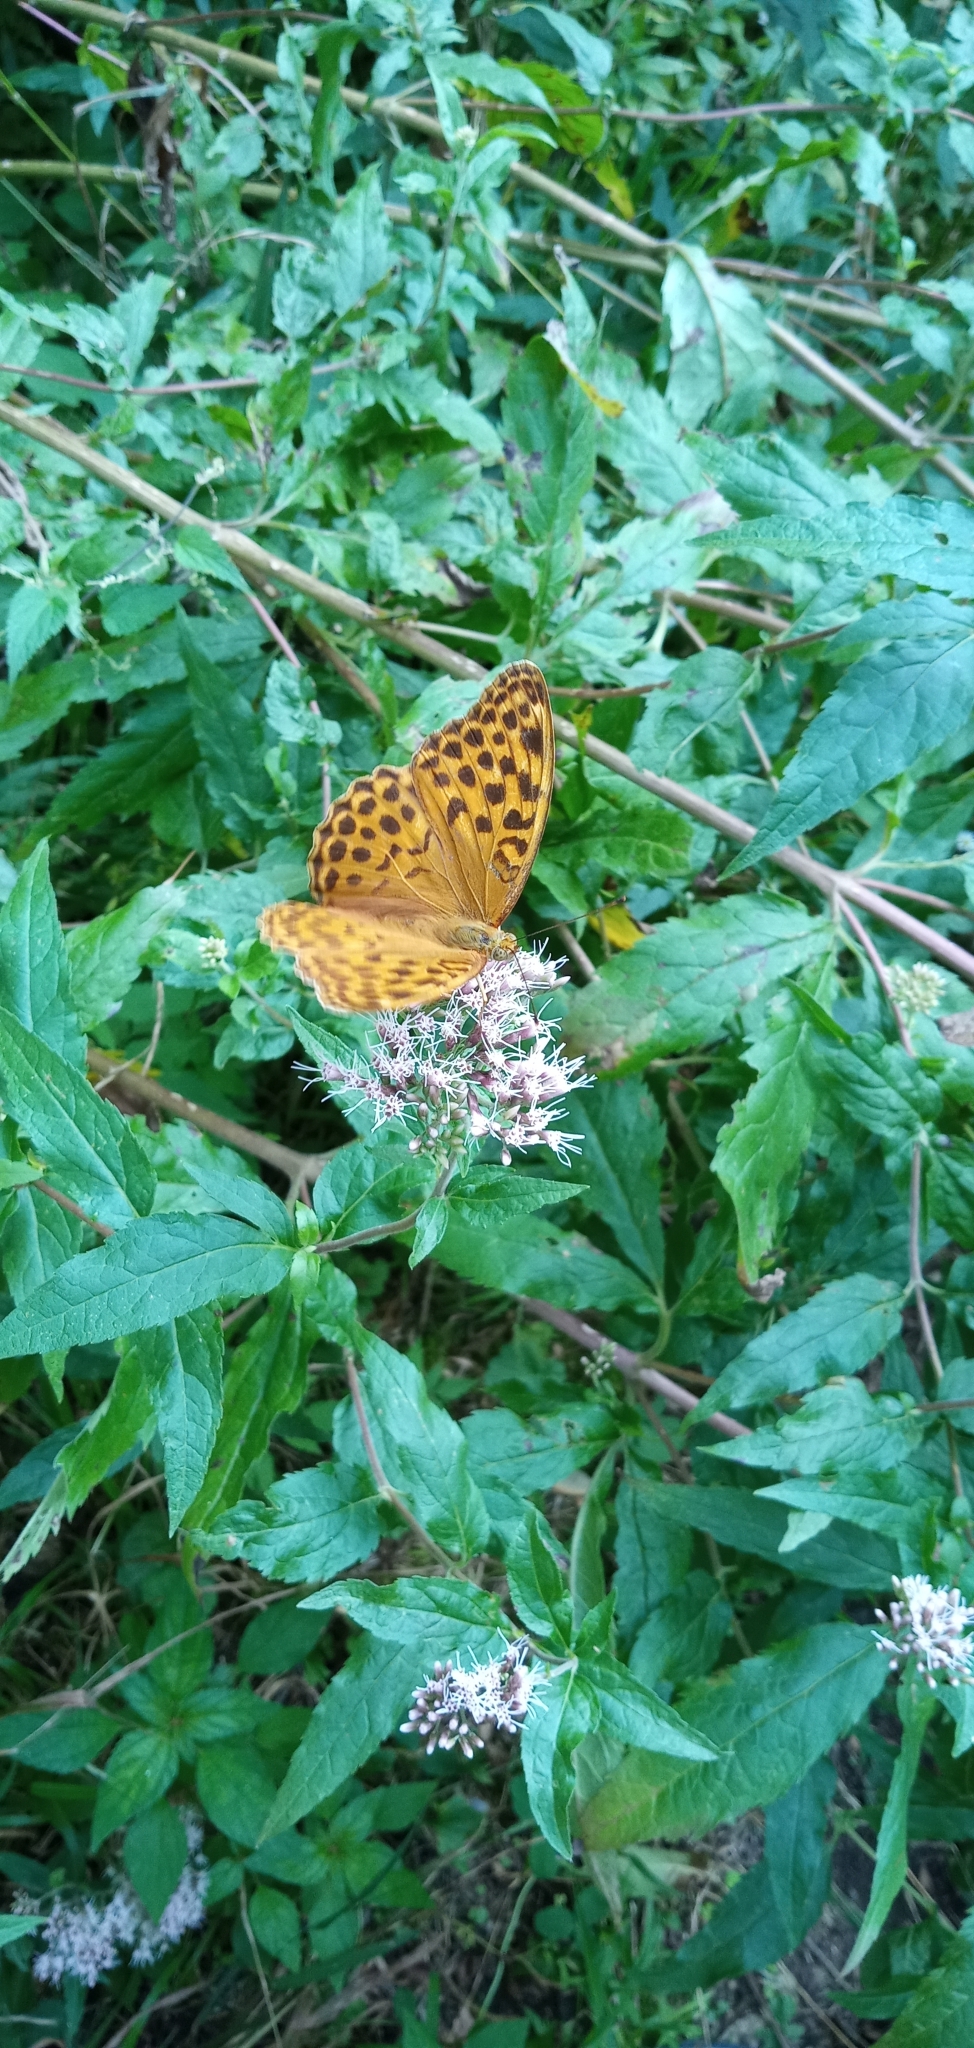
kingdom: Plantae
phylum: Tracheophyta
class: Magnoliopsida
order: Asterales
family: Asteraceae
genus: Eupatorium
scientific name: Eupatorium cannabinum
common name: Hemp-agrimony
